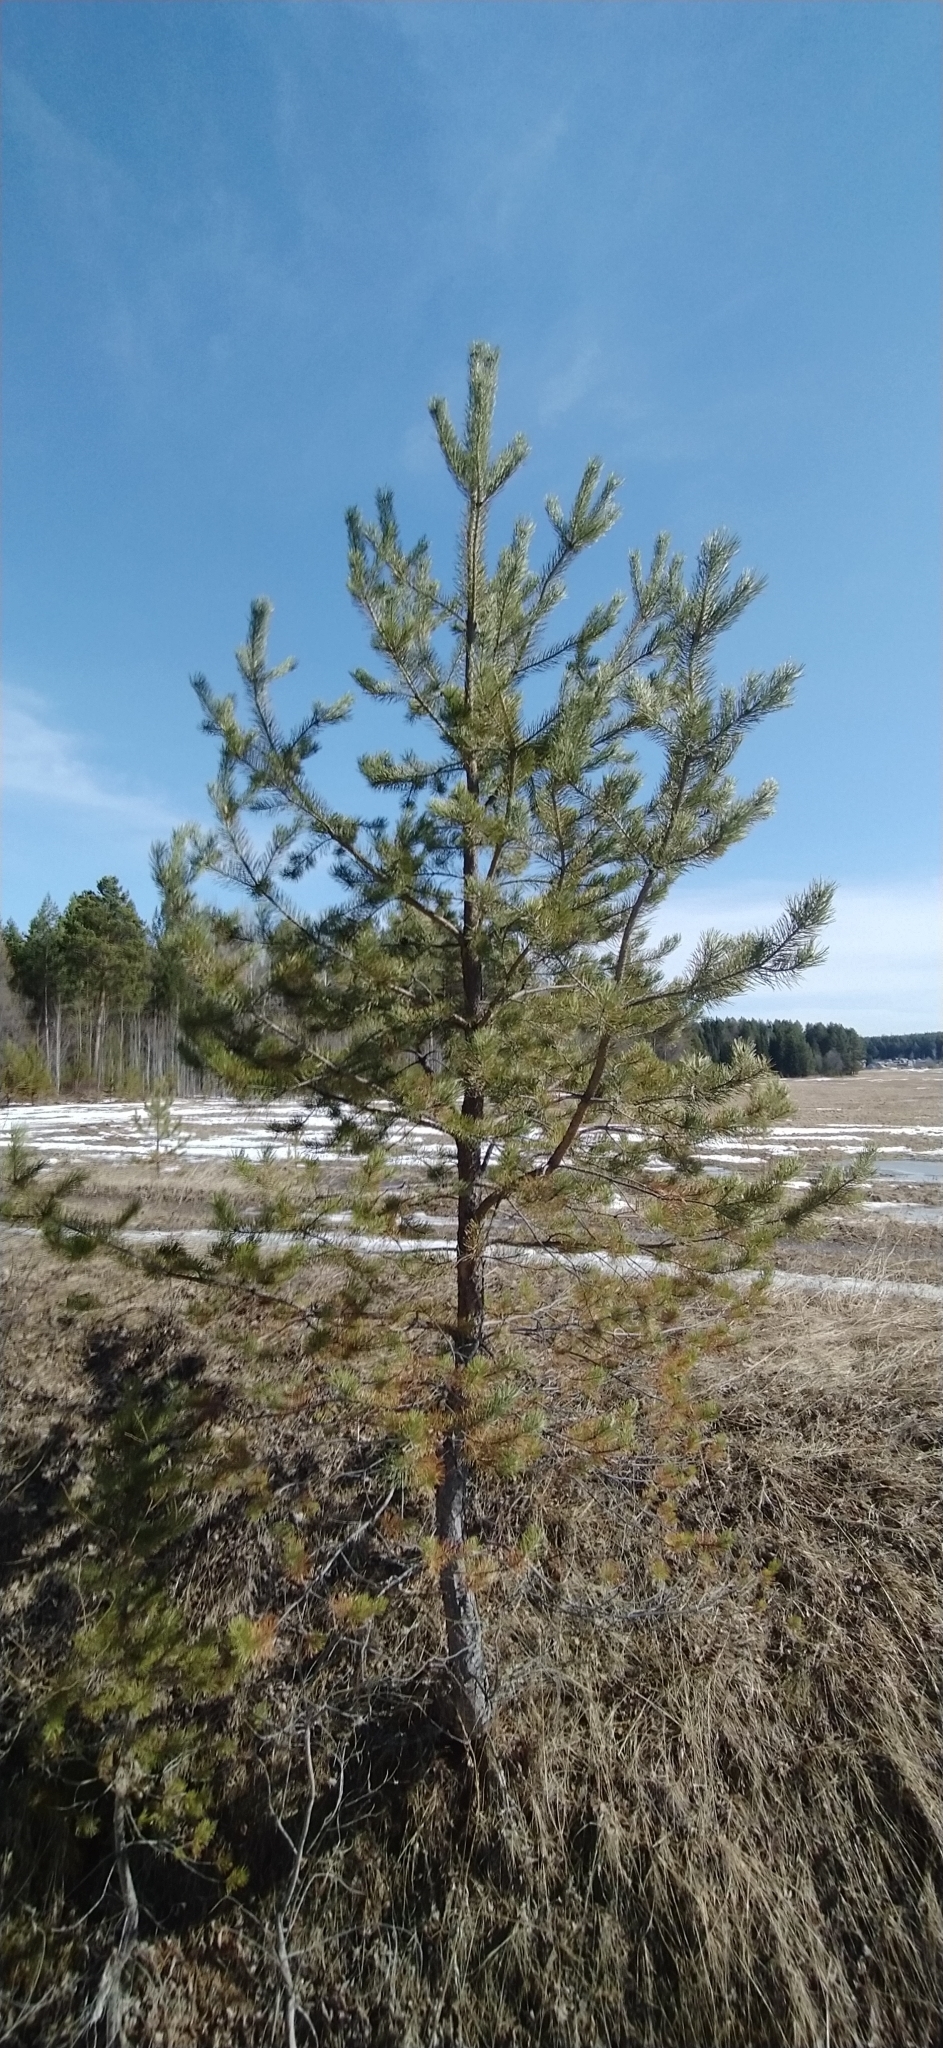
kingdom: Plantae
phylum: Tracheophyta
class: Pinopsida
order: Pinales
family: Pinaceae
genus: Pinus
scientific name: Pinus sylvestris
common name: Scots pine
